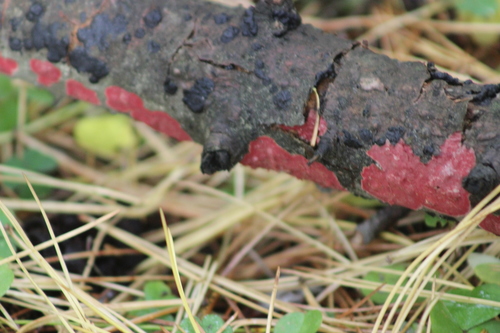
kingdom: Fungi
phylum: Basidiomycota
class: Agaricomycetes
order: Hymenochaetales
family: Hymenochaetaceae
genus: Hymenochaete
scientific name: Hymenochaete mougeotii
